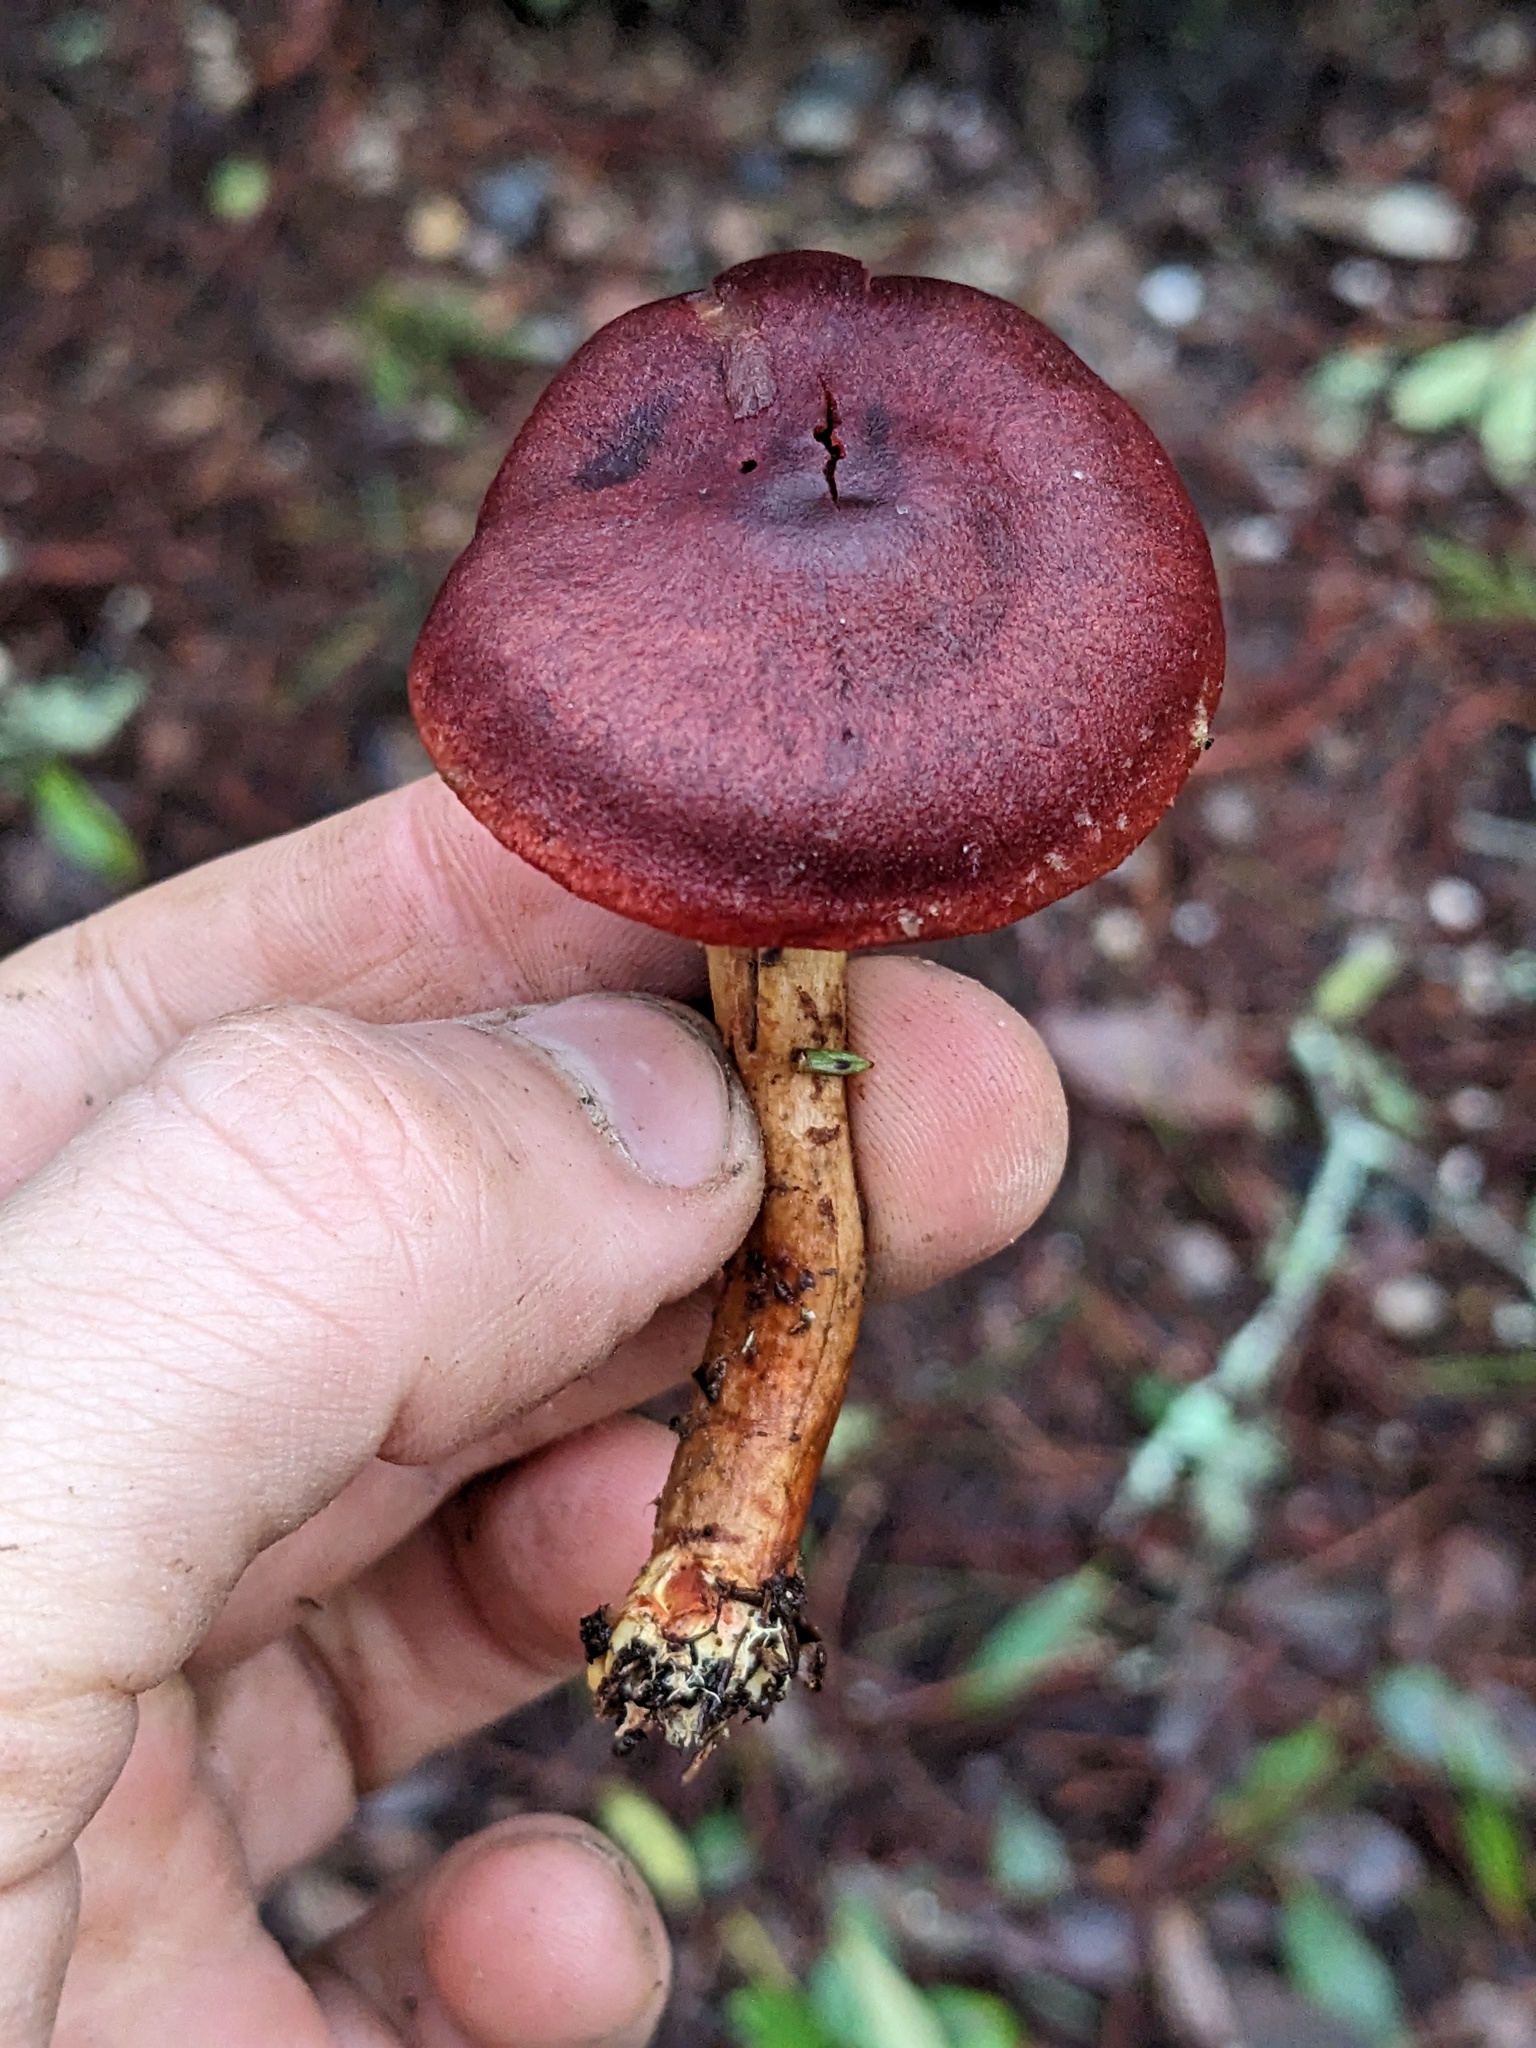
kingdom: Fungi
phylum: Basidiomycota
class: Agaricomycetes
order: Agaricales
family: Cortinariaceae
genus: Cortinarius
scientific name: Cortinarius smithii
